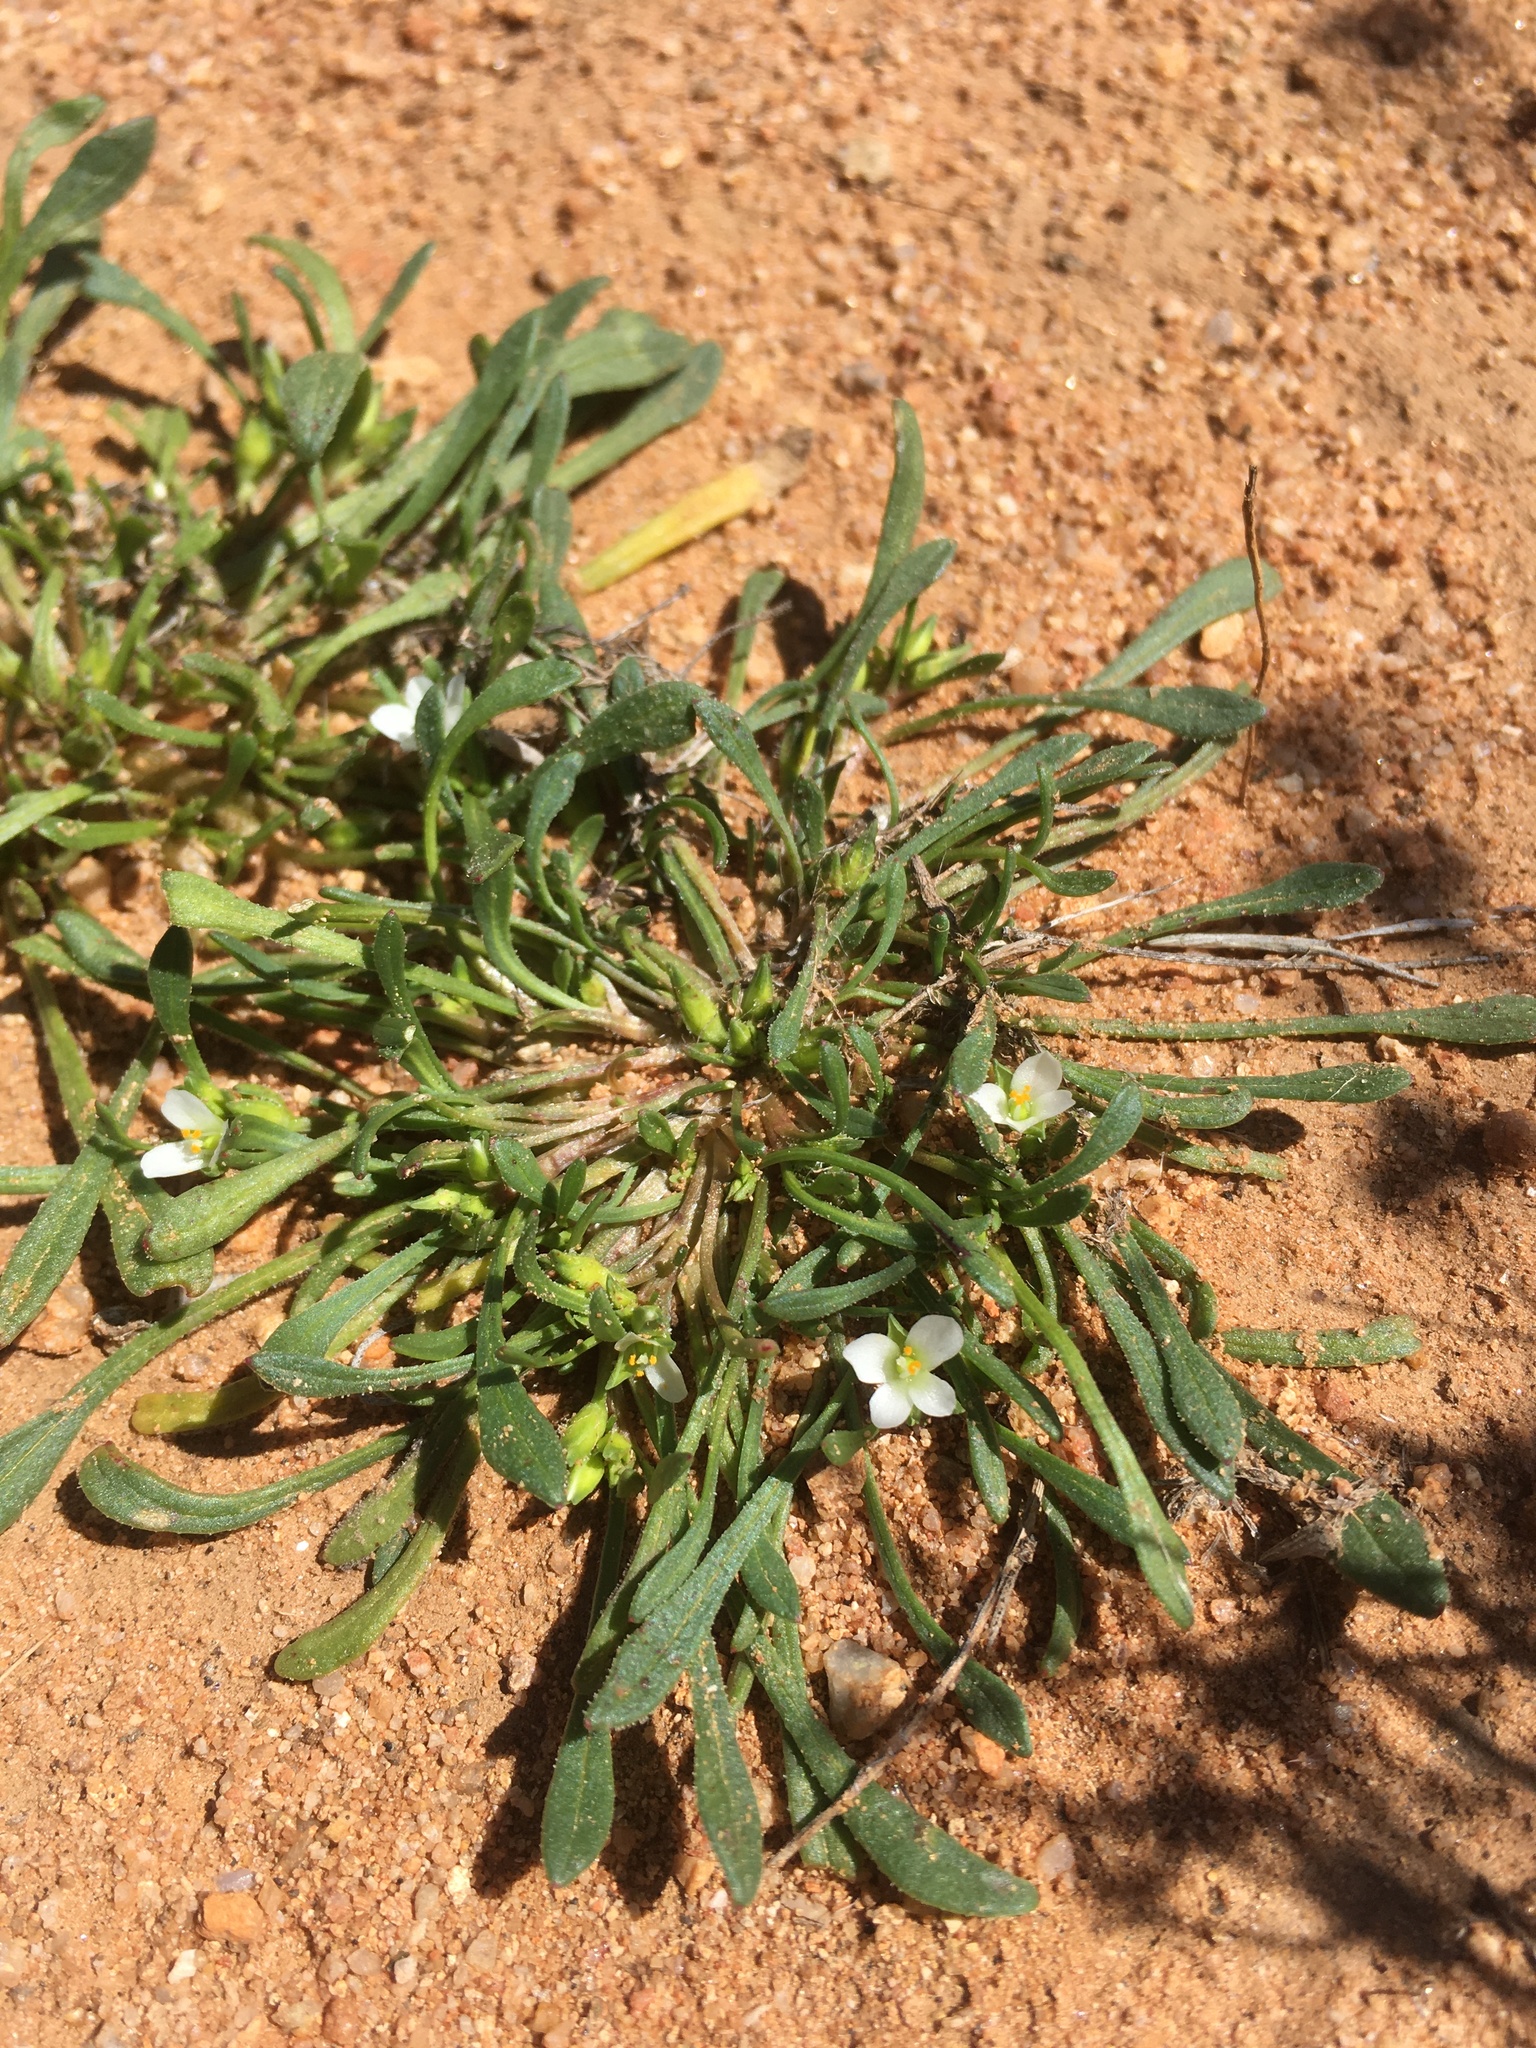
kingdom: Plantae
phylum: Tracheophyta
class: Magnoliopsida
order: Caryophyllales
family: Montiaceae
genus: Calandrinia
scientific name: Calandrinia menziesii
